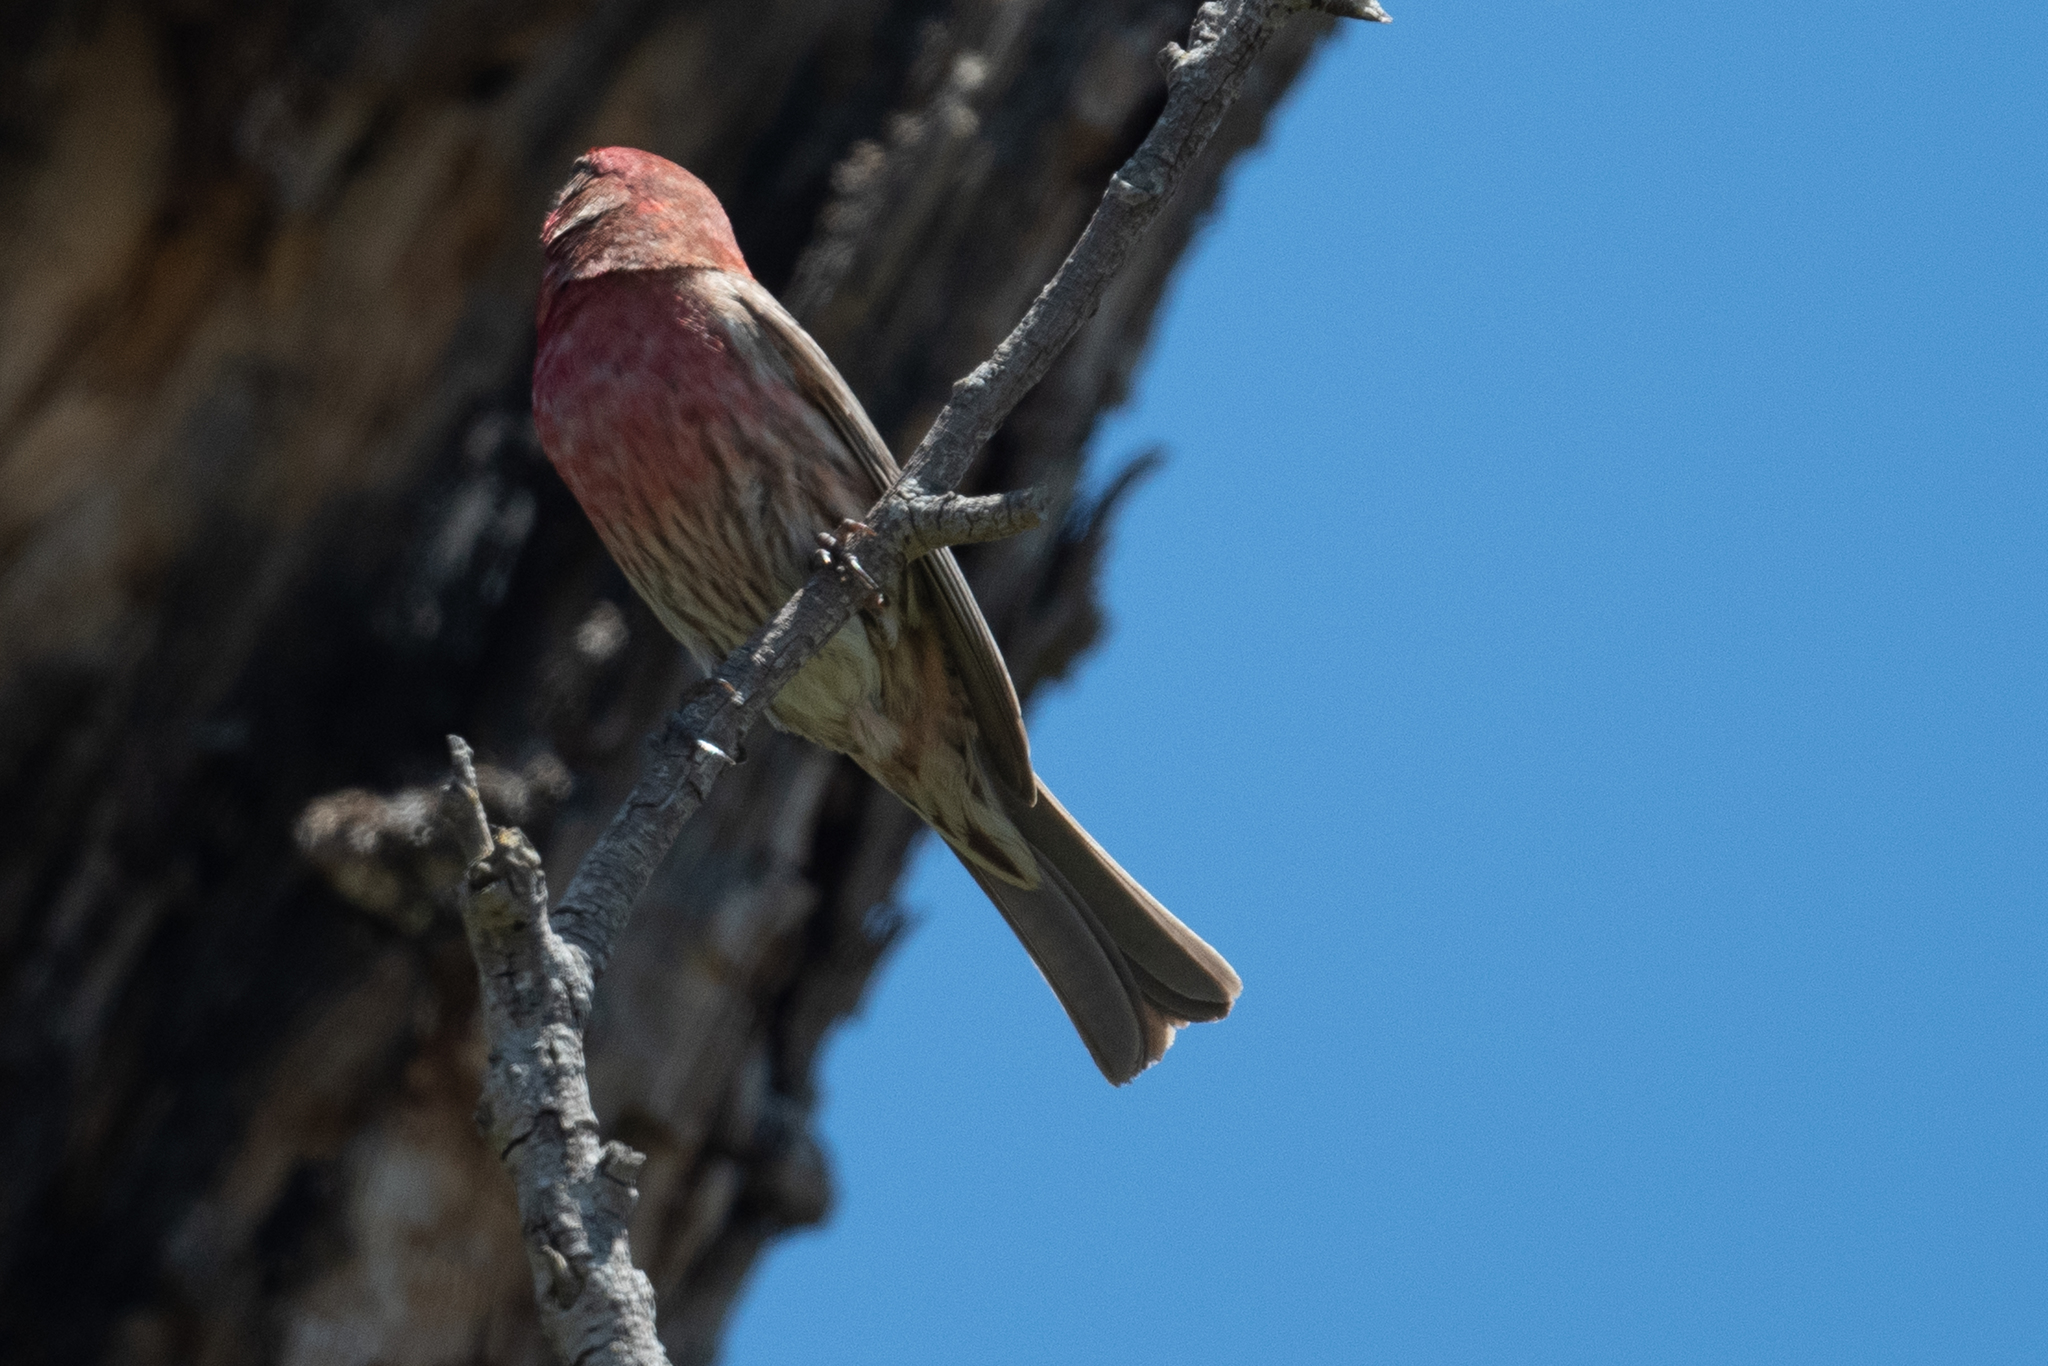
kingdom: Animalia
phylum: Chordata
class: Aves
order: Passeriformes
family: Fringillidae
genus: Haemorhous
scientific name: Haemorhous mexicanus
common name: House finch
